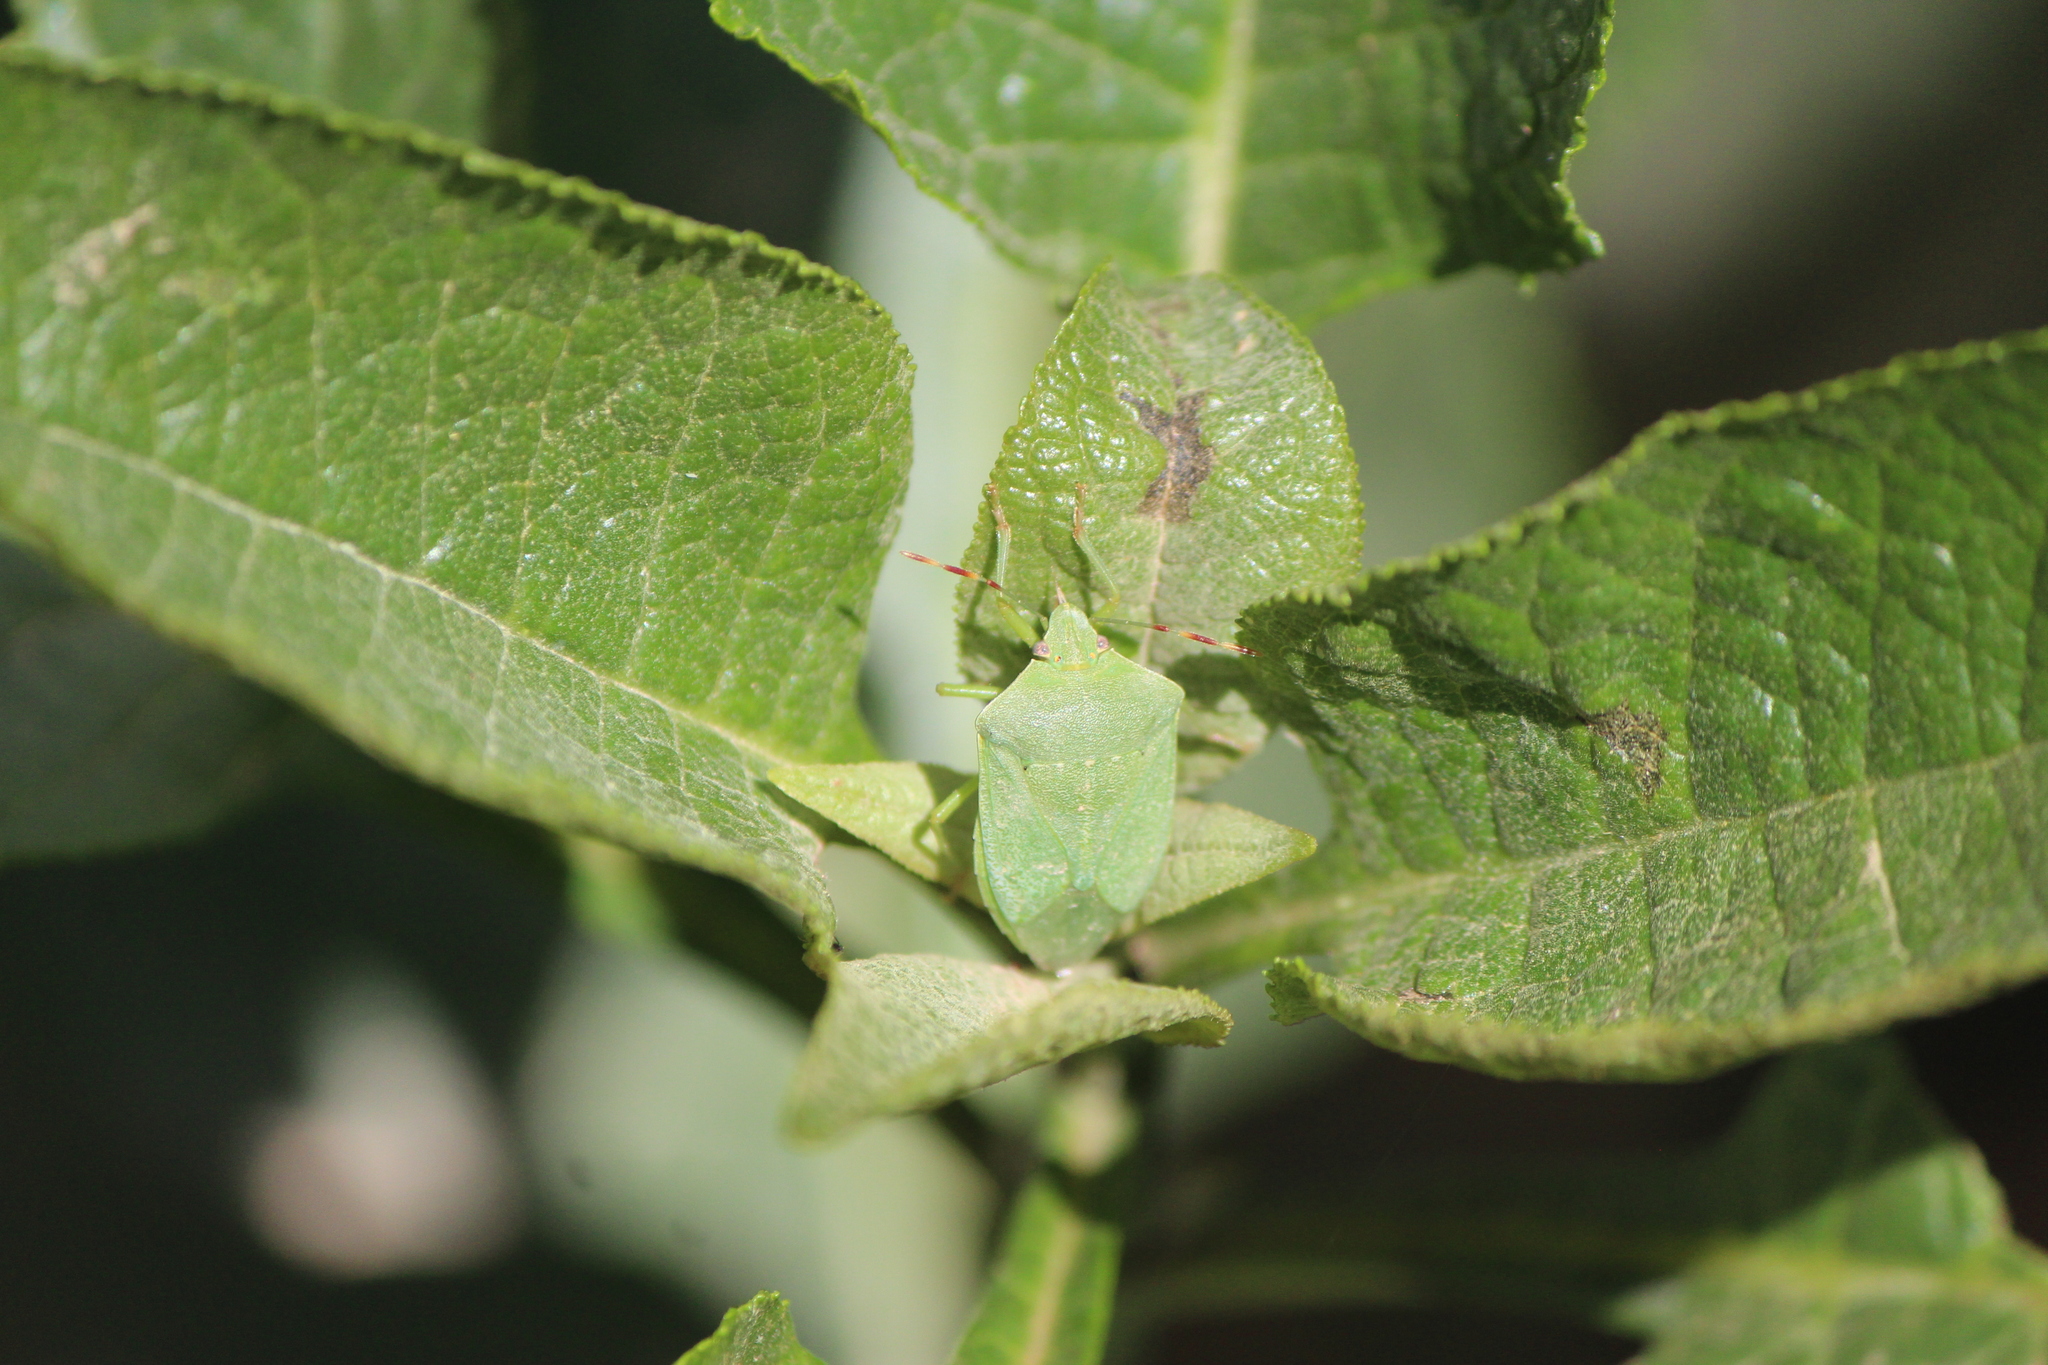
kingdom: Animalia
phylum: Arthropoda
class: Insecta
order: Hemiptera
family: Pentatomidae
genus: Nezara
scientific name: Nezara viridula
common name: Southern green stink bug
